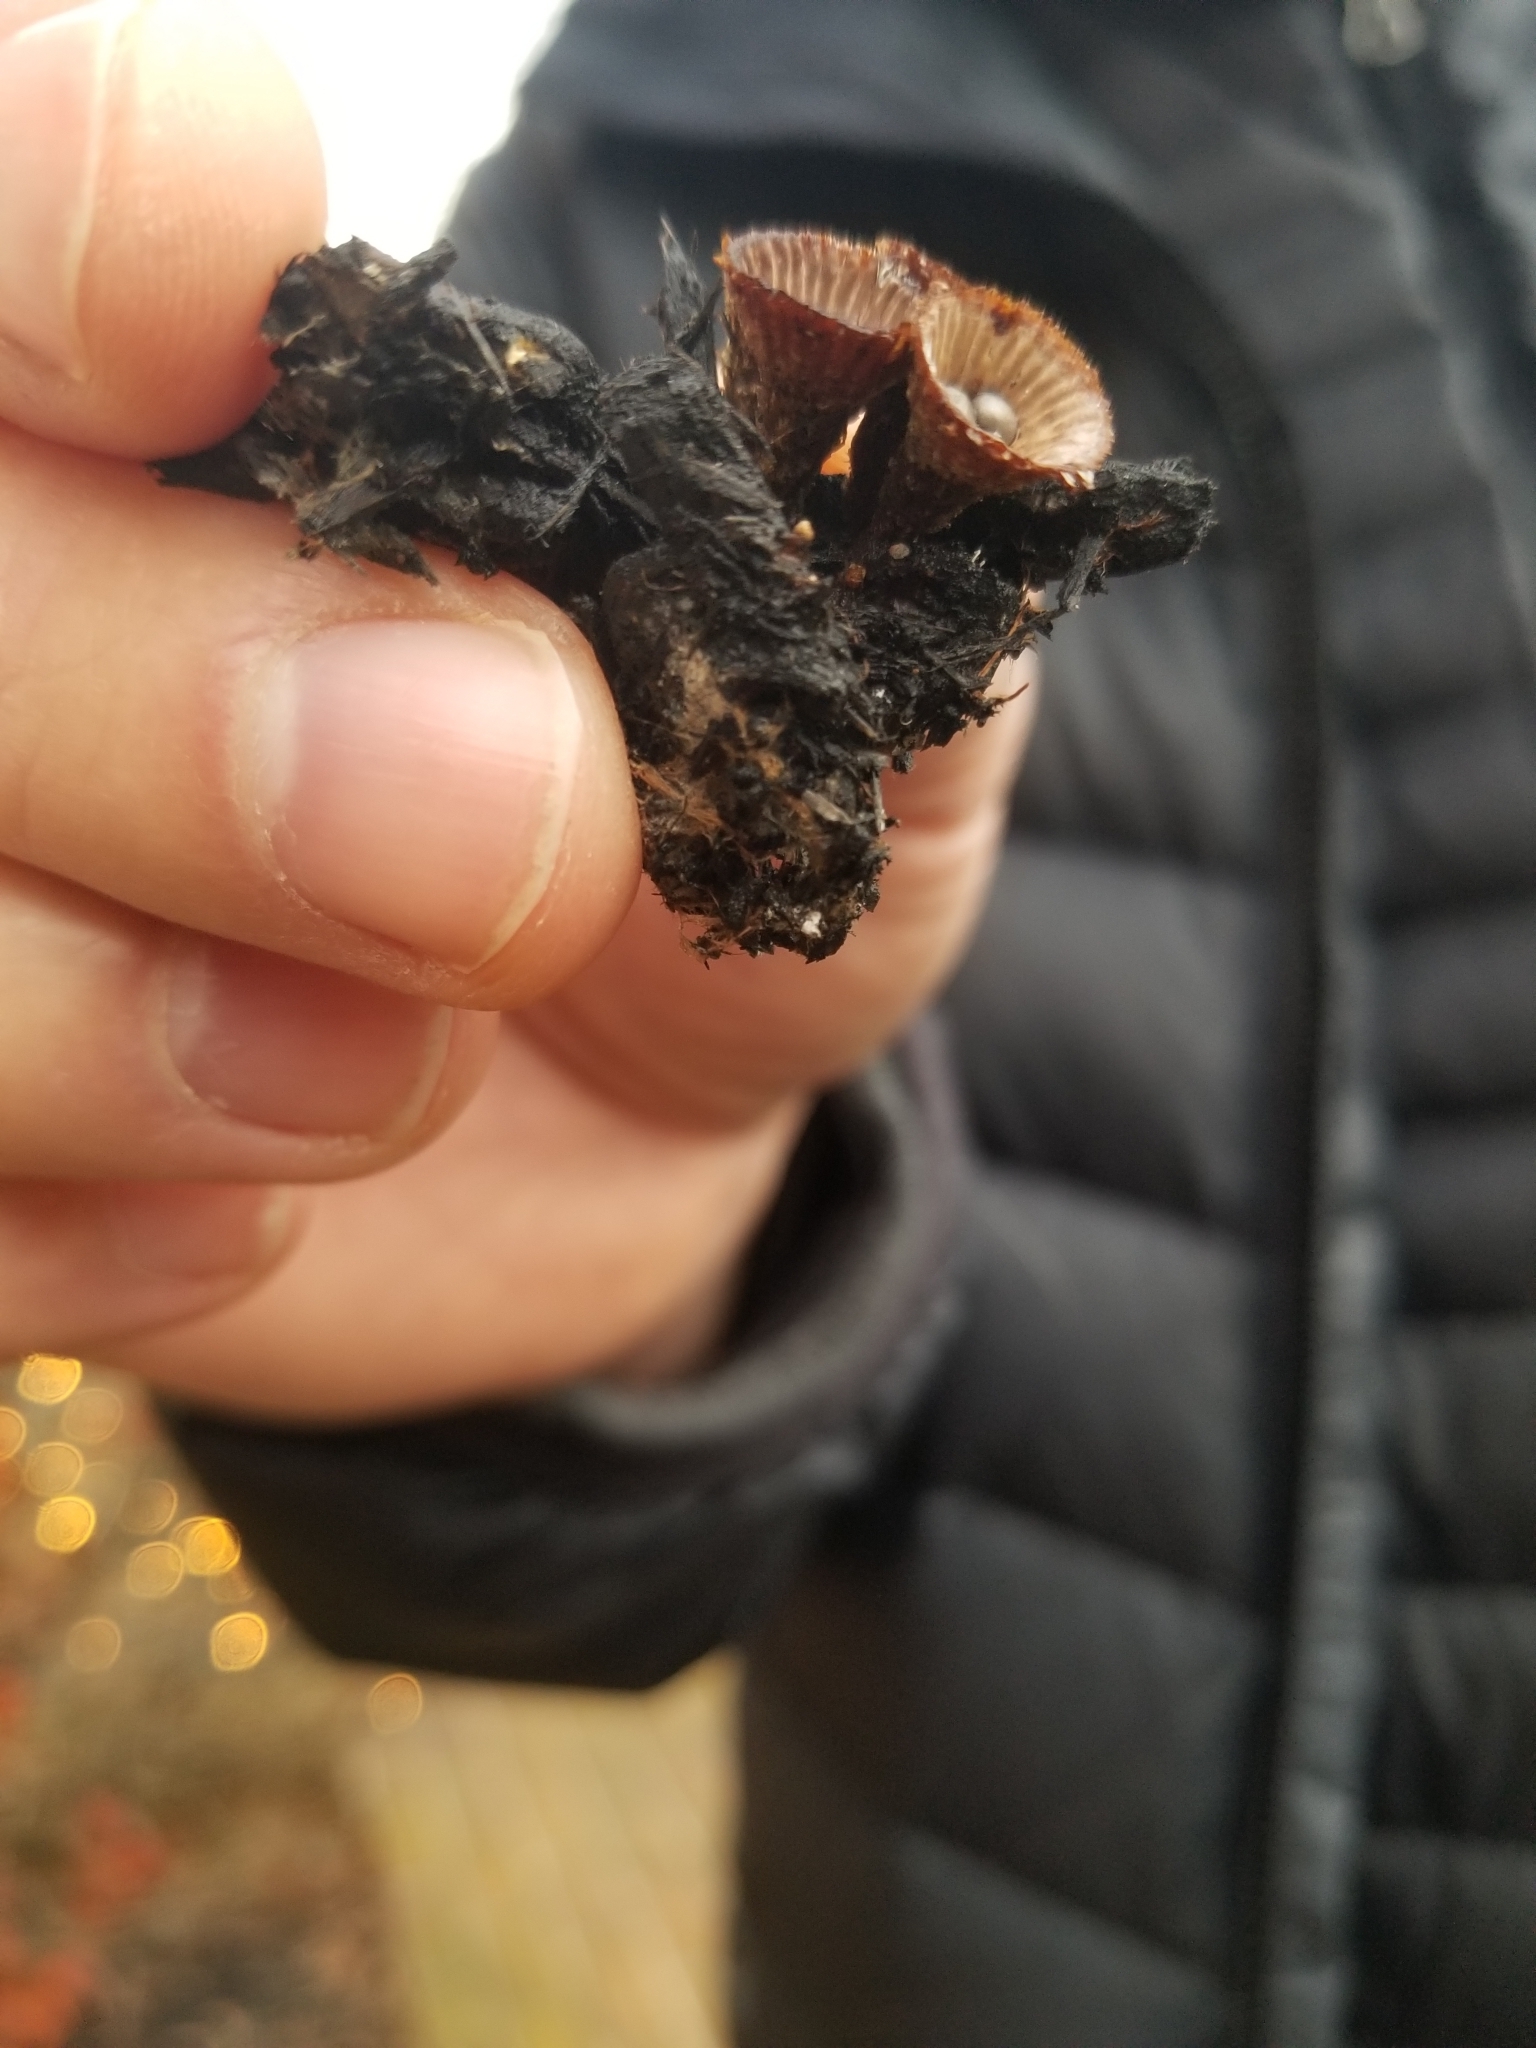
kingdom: Fungi
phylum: Basidiomycota
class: Agaricomycetes
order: Agaricales
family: Agaricaceae
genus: Cyathus
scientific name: Cyathus striatus
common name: Fluted bird's nest
